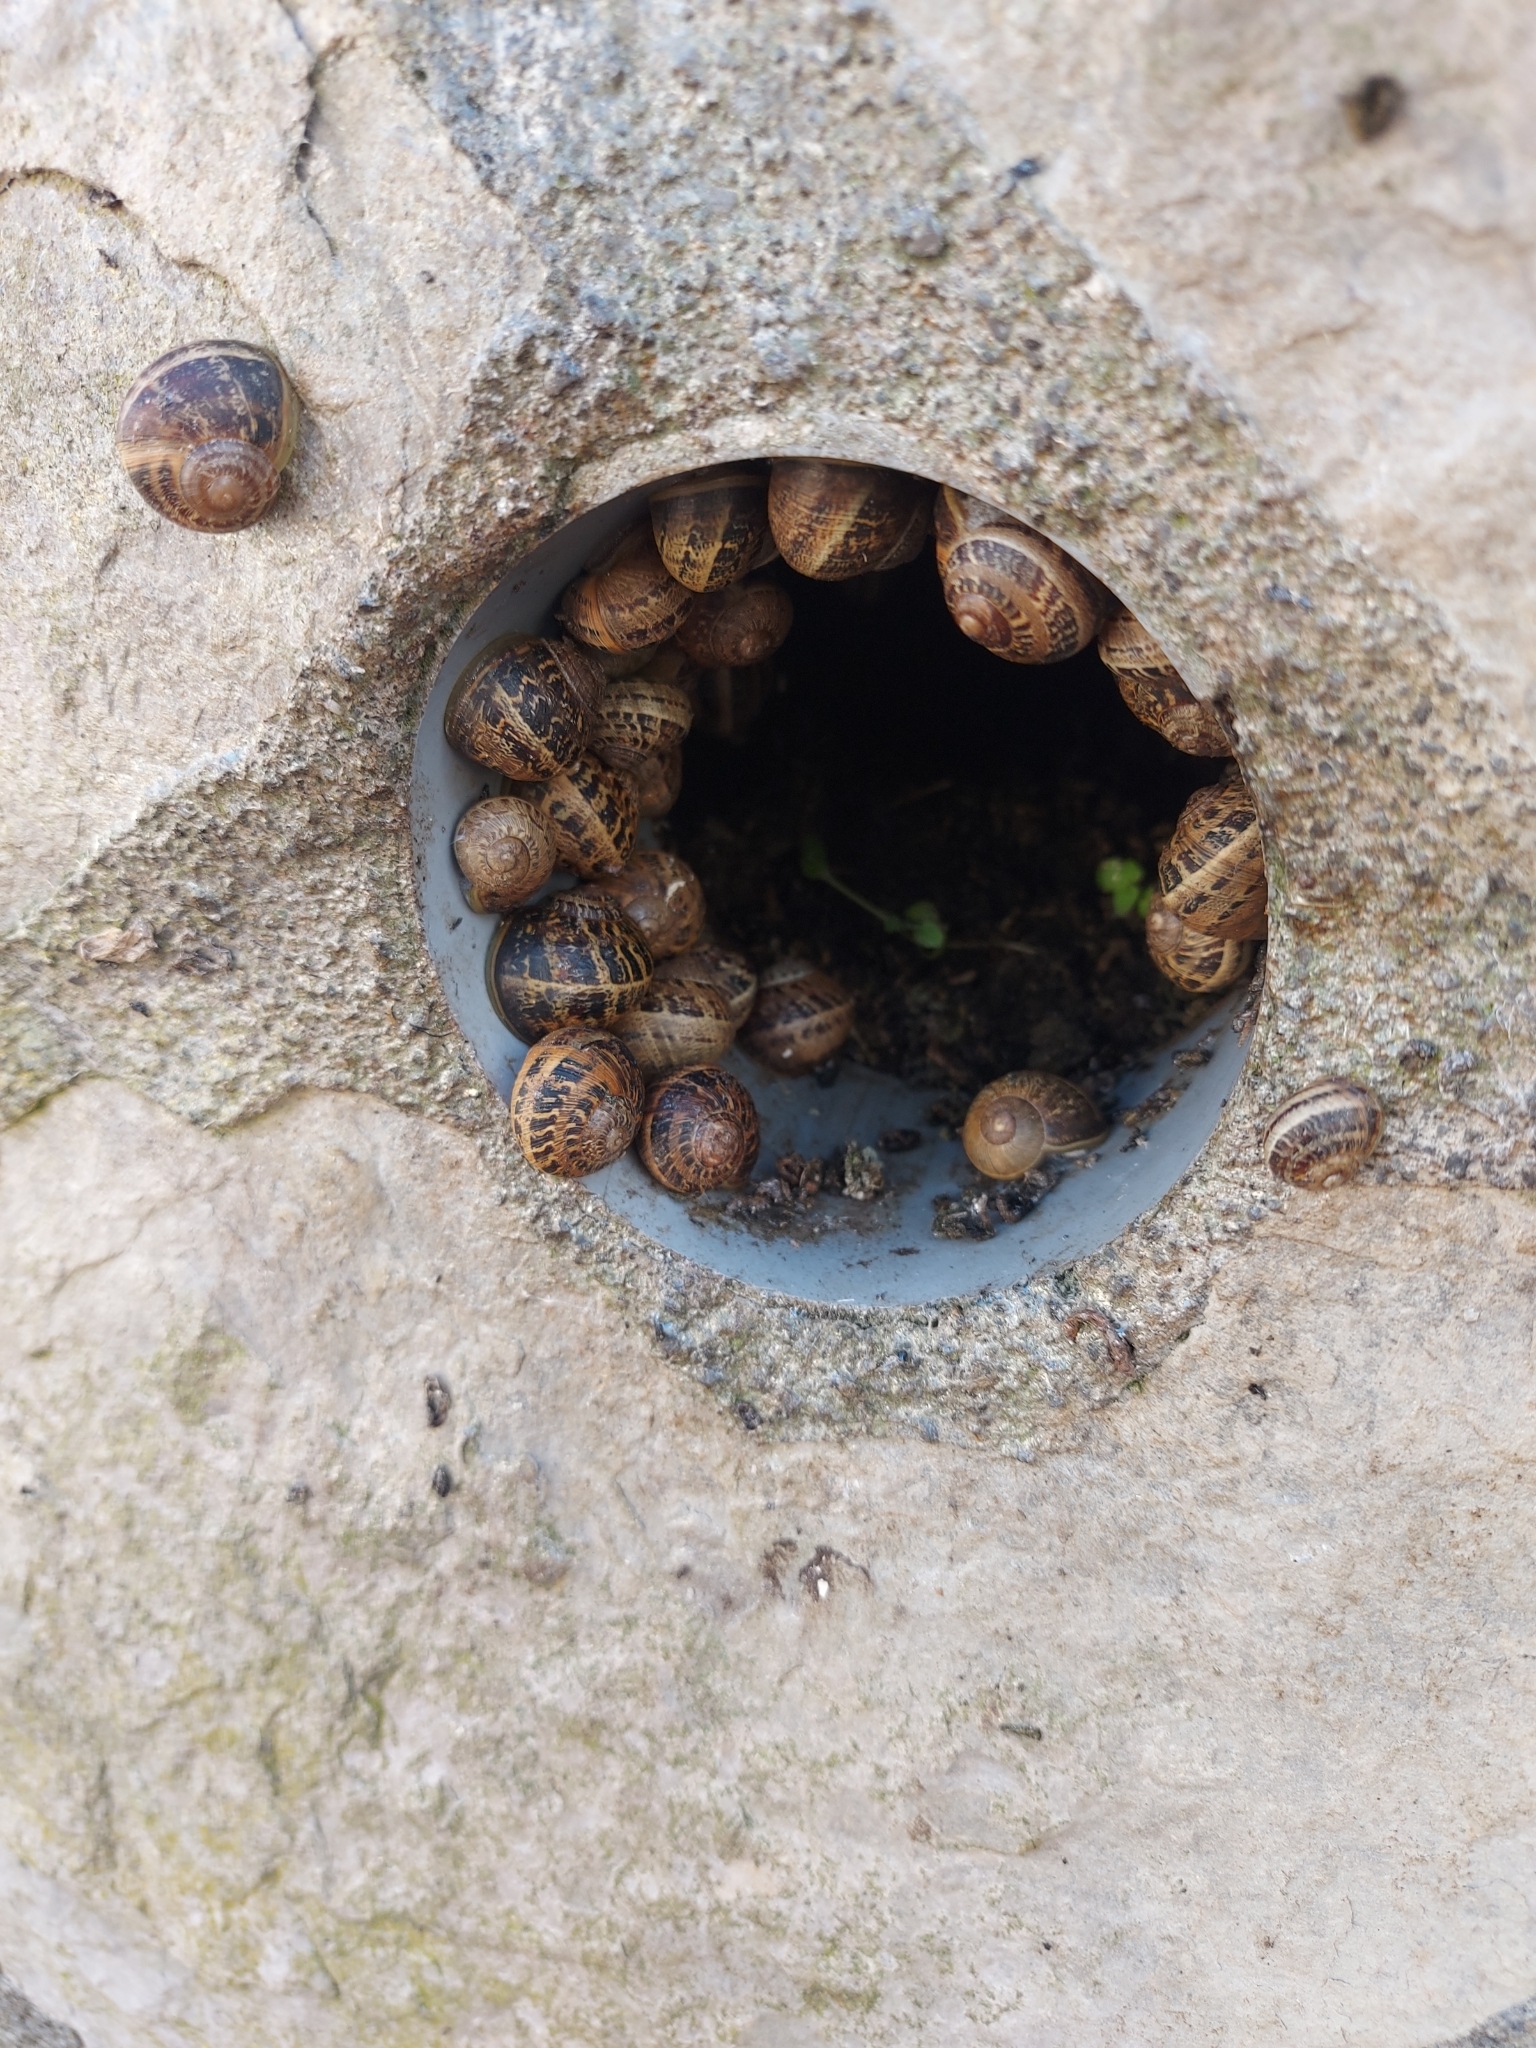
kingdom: Animalia
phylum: Mollusca
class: Gastropoda
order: Stylommatophora
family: Helicidae
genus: Cornu
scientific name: Cornu aspersum
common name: Brown garden snail
